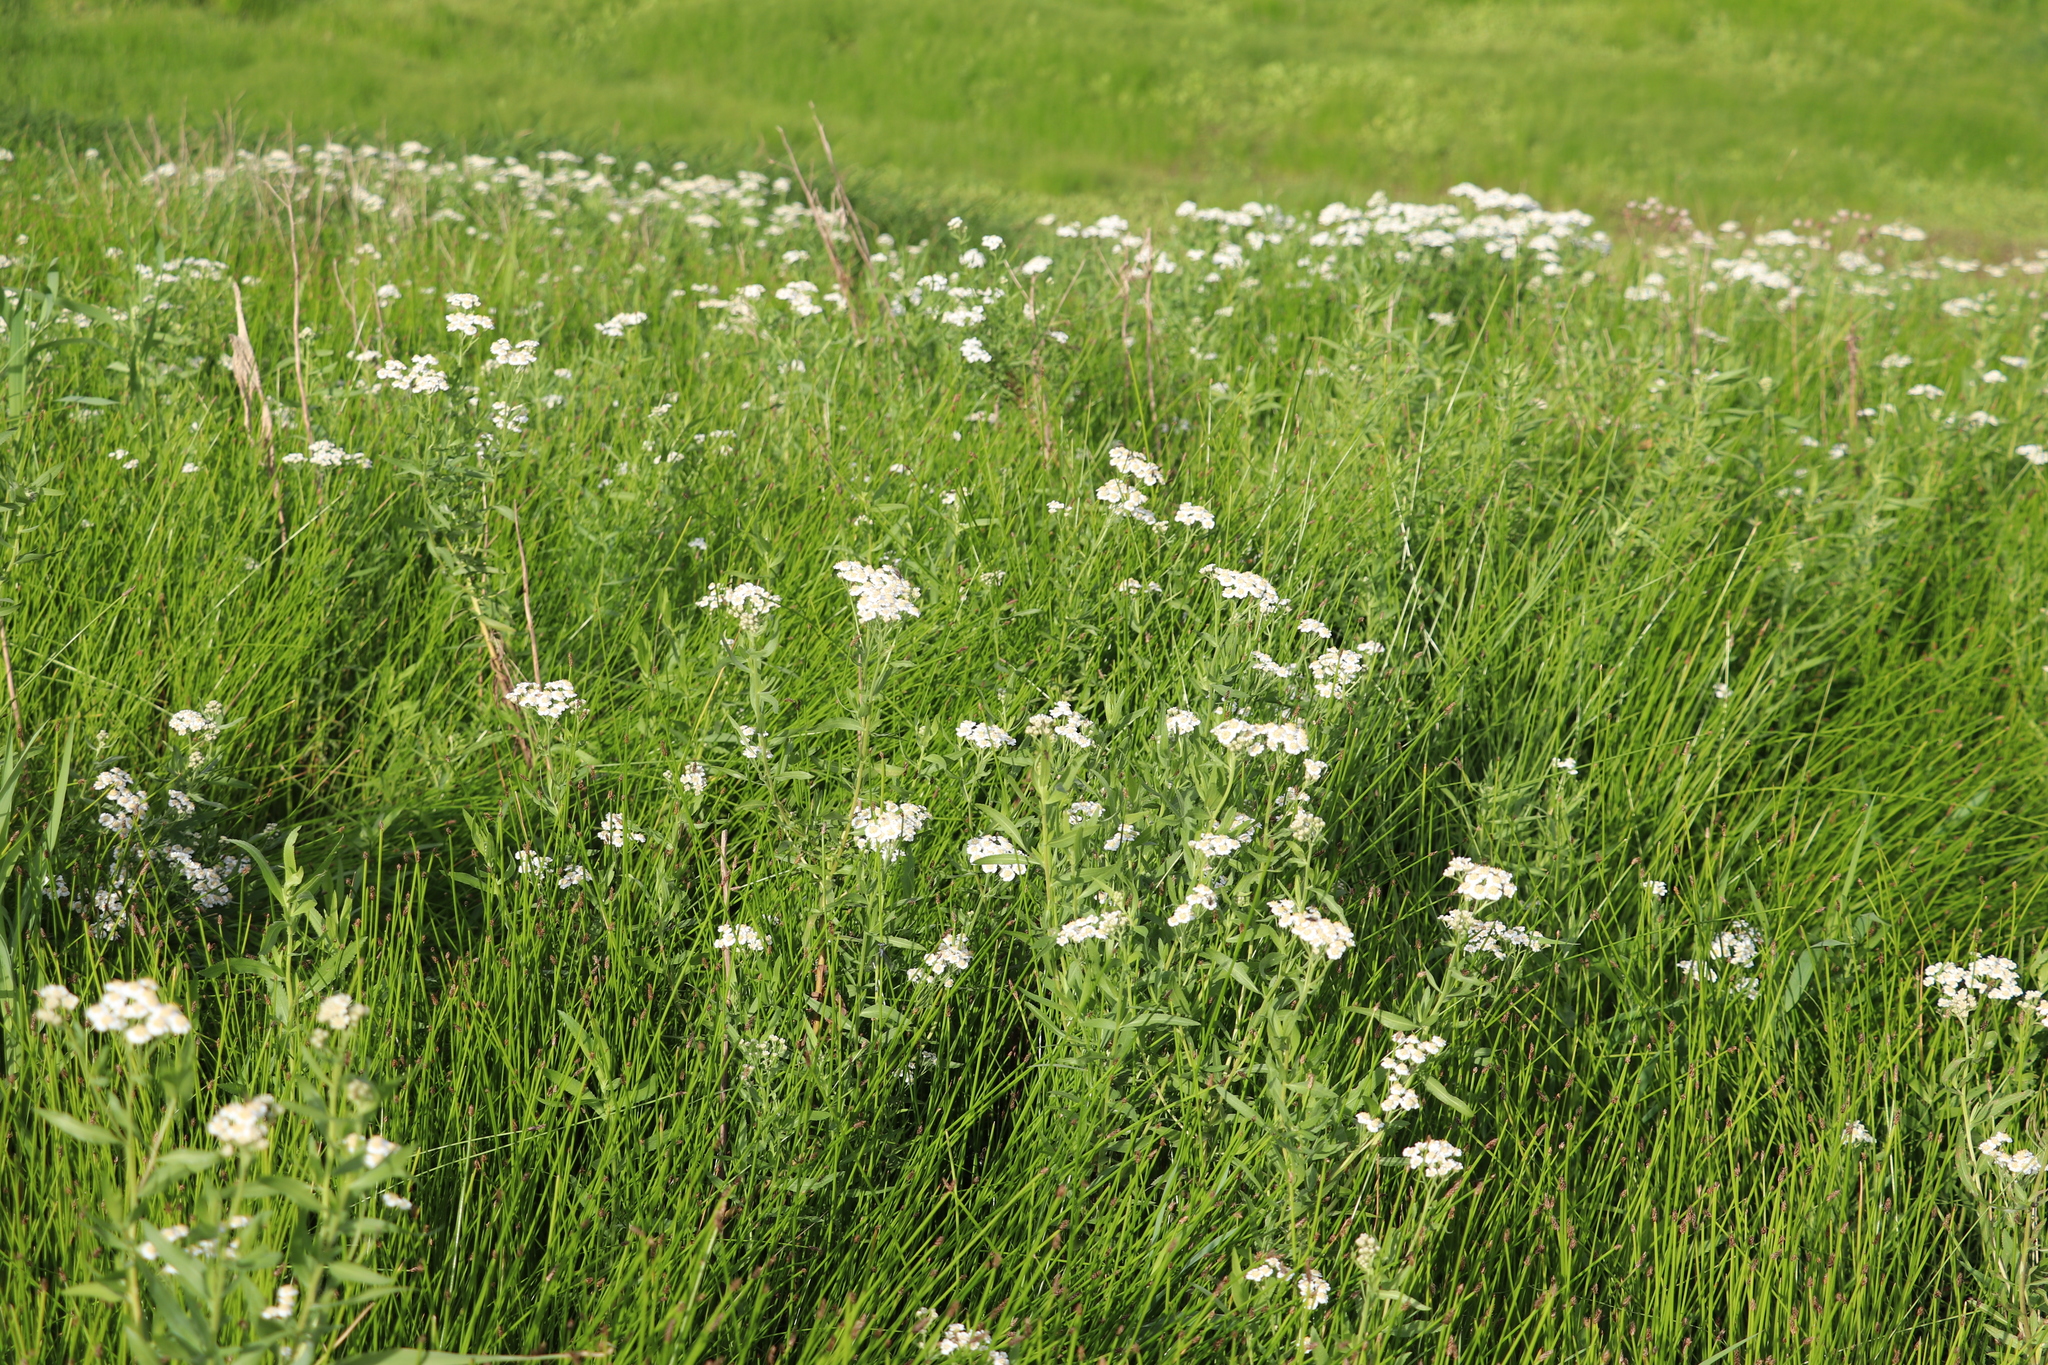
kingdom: Plantae
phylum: Tracheophyta
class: Magnoliopsida
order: Asterales
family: Asteraceae
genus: Achillea
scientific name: Achillea salicifolia
